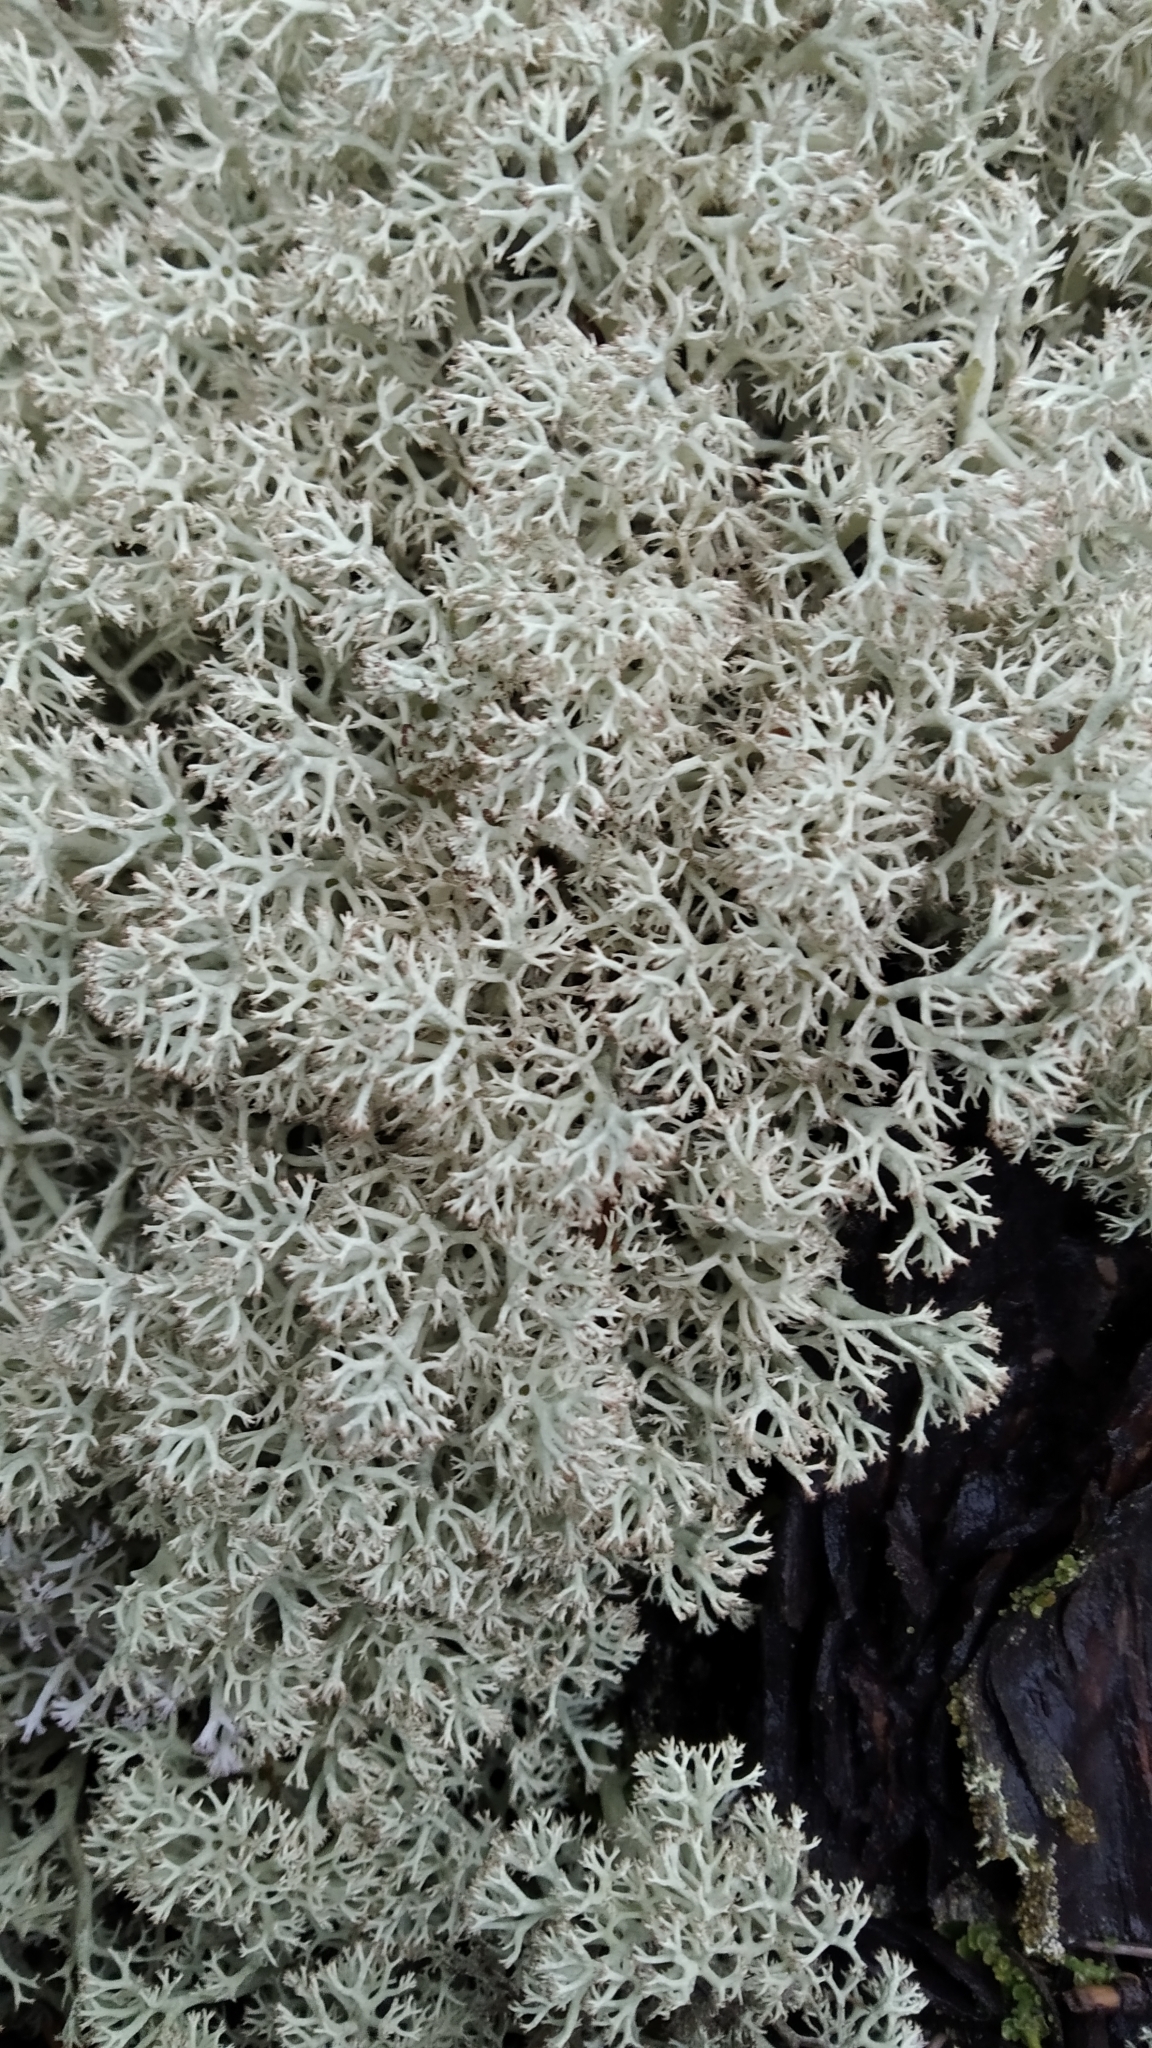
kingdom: Fungi
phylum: Ascomycota
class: Lecanoromycetes
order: Lecanorales
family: Cladoniaceae
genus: Cladonia
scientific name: Cladonia stellaris
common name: Star-tipped reindeer lichen
